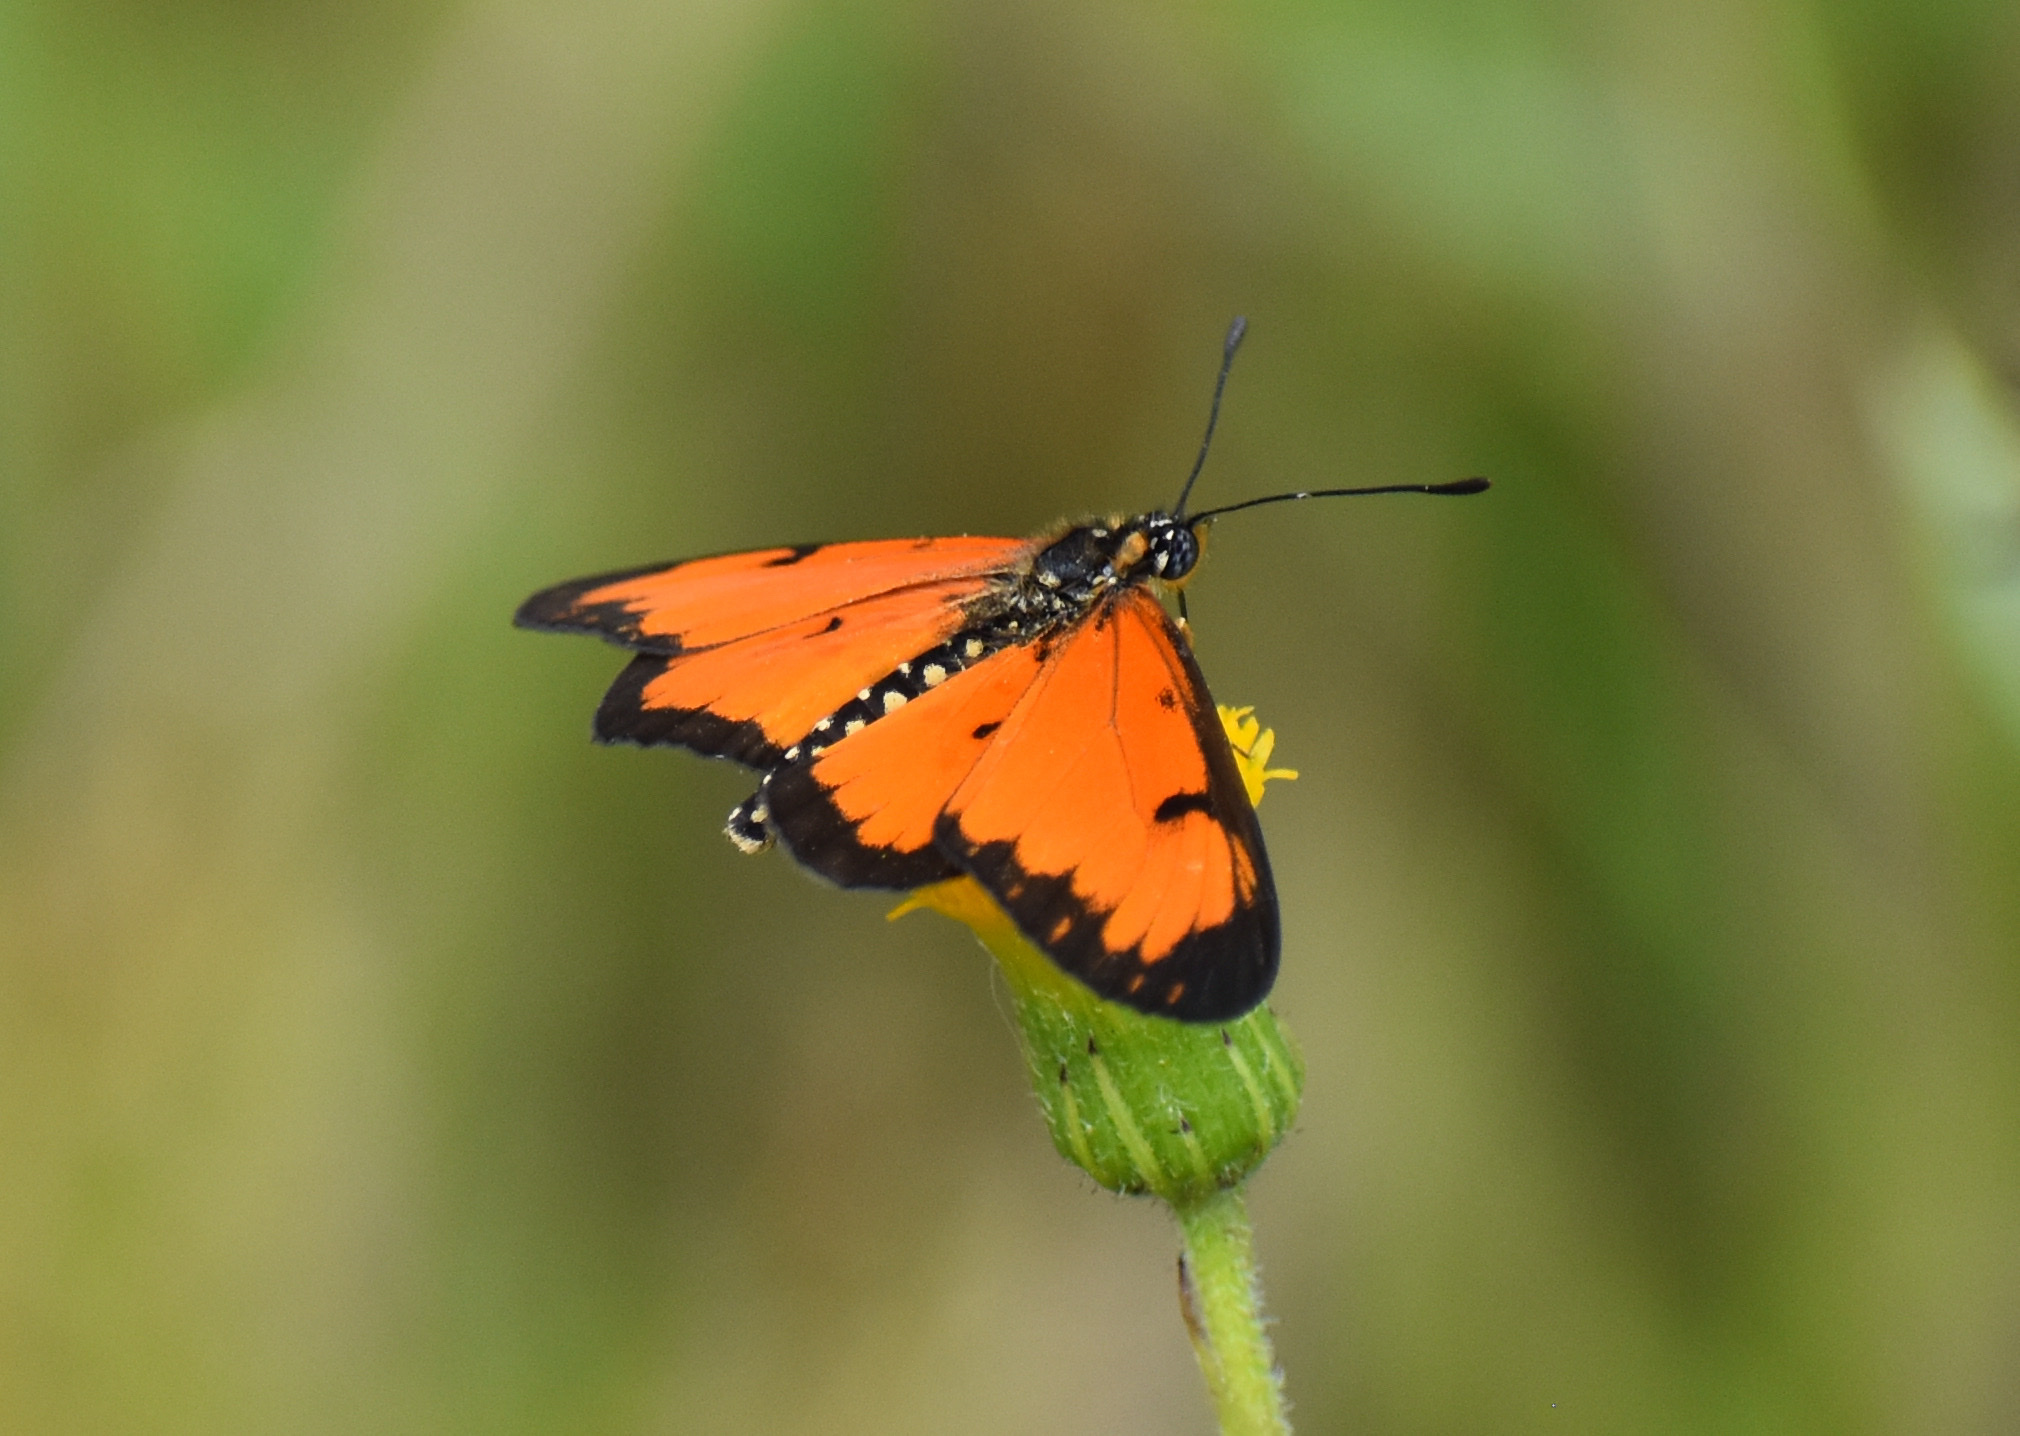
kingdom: Animalia
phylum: Arthropoda
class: Insecta
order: Lepidoptera
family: Nymphalidae
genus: Acraea
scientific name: Acraea Telchinia serena
